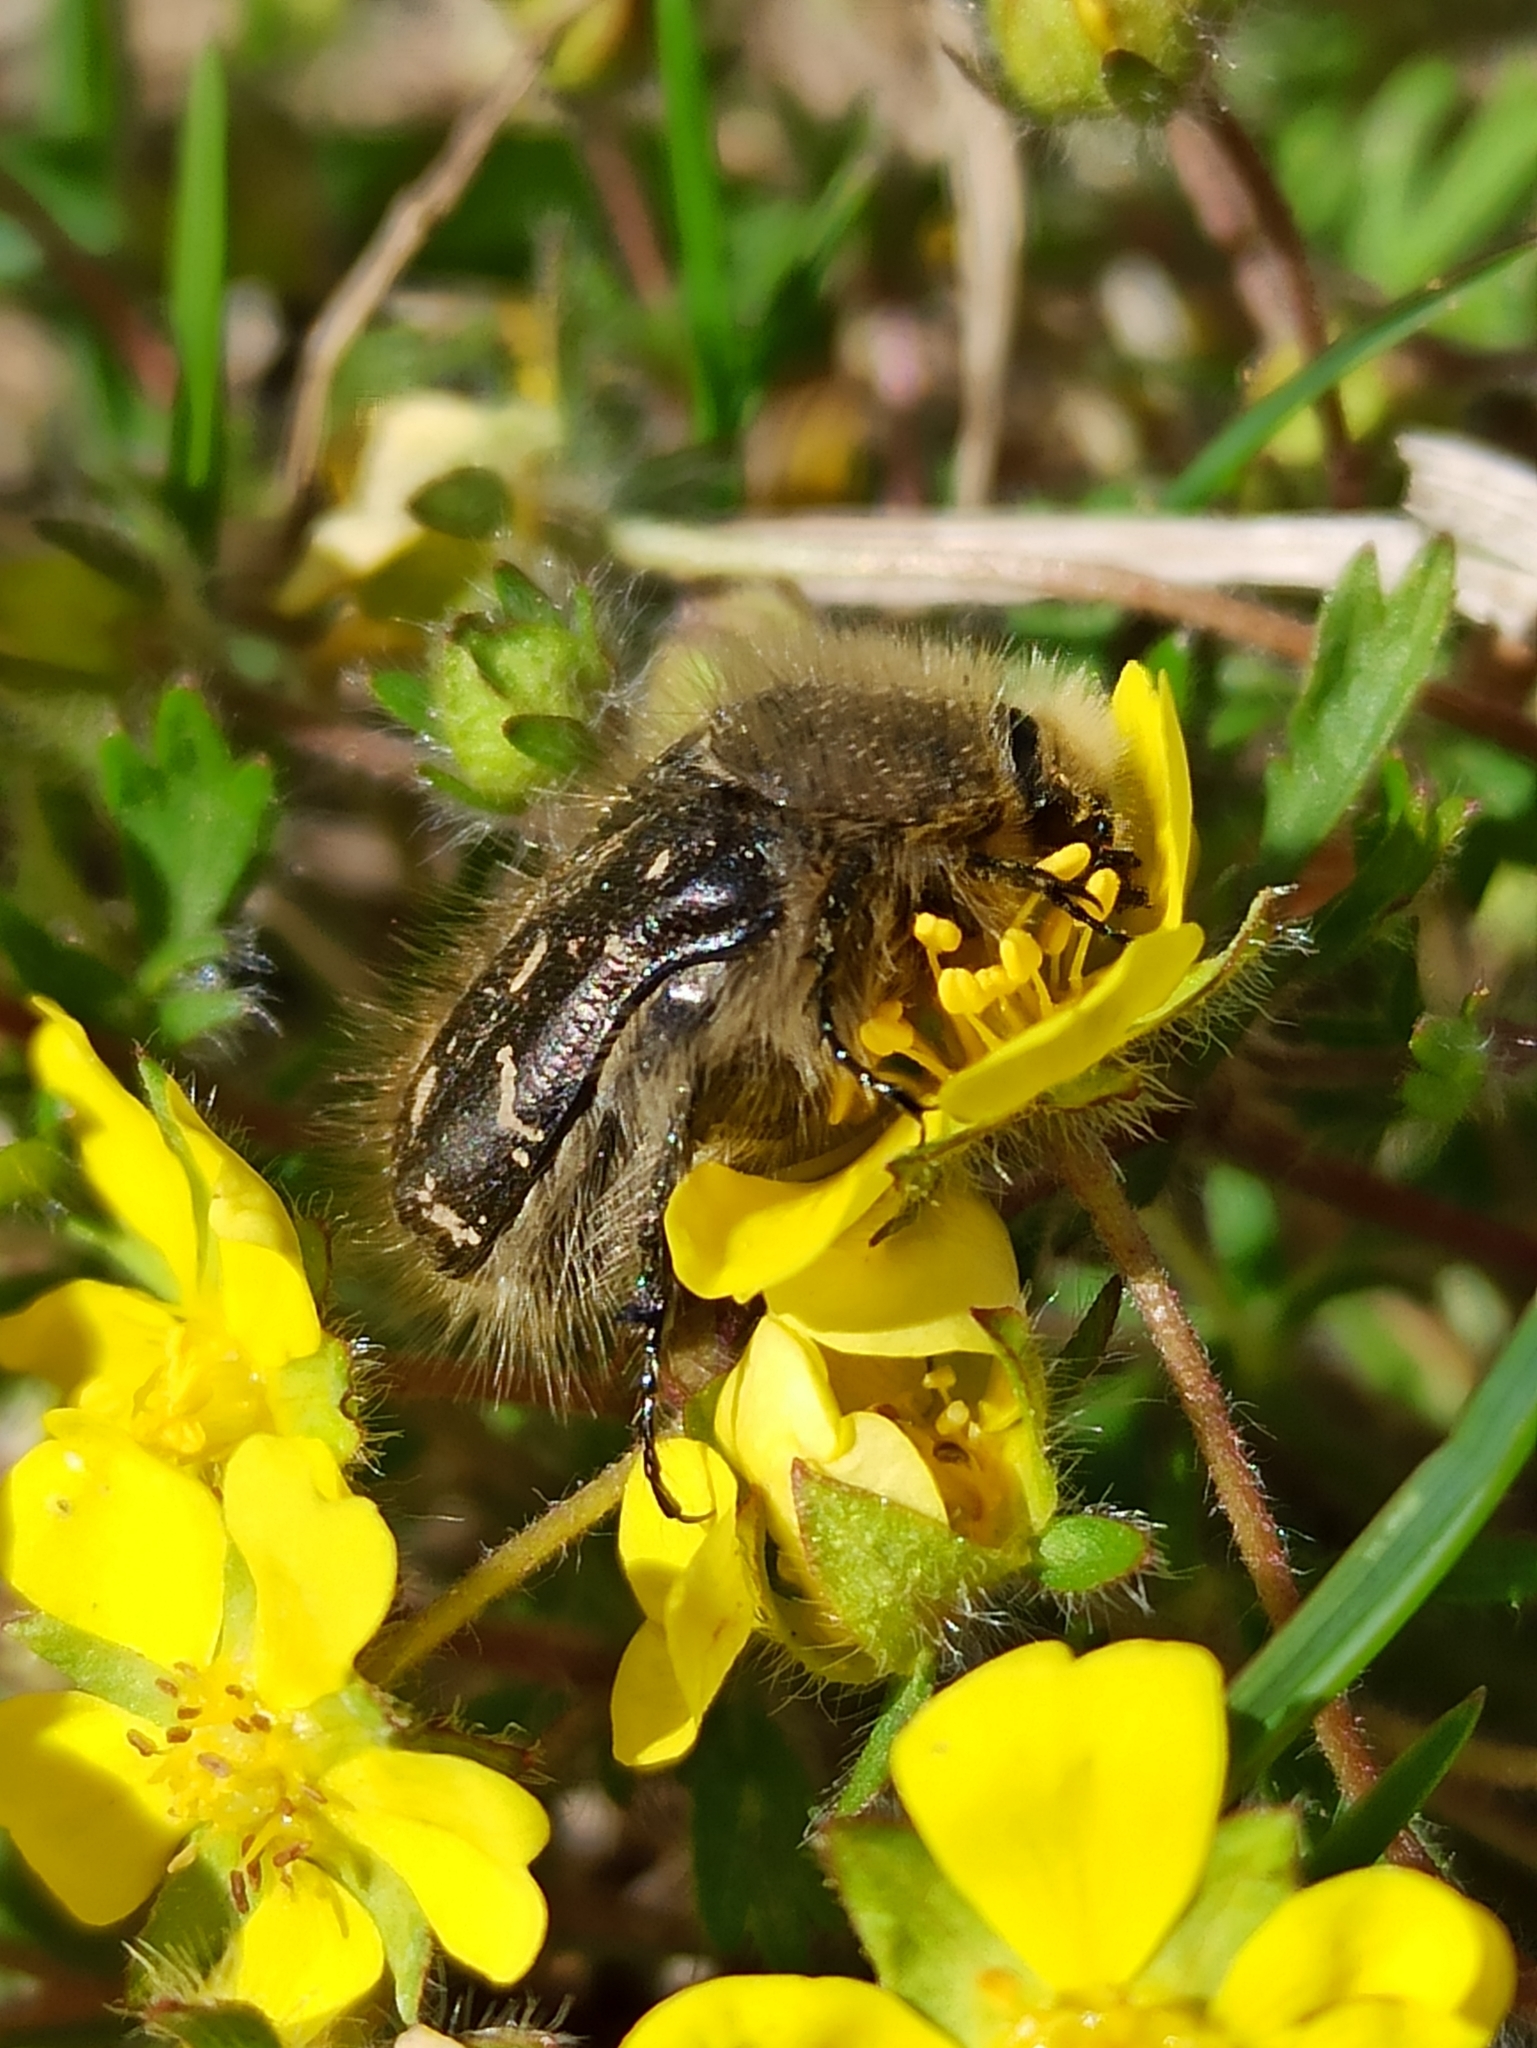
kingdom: Animalia
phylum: Arthropoda
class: Insecta
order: Coleoptera
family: Scarabaeidae
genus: Tropinota
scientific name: Tropinota hirta
